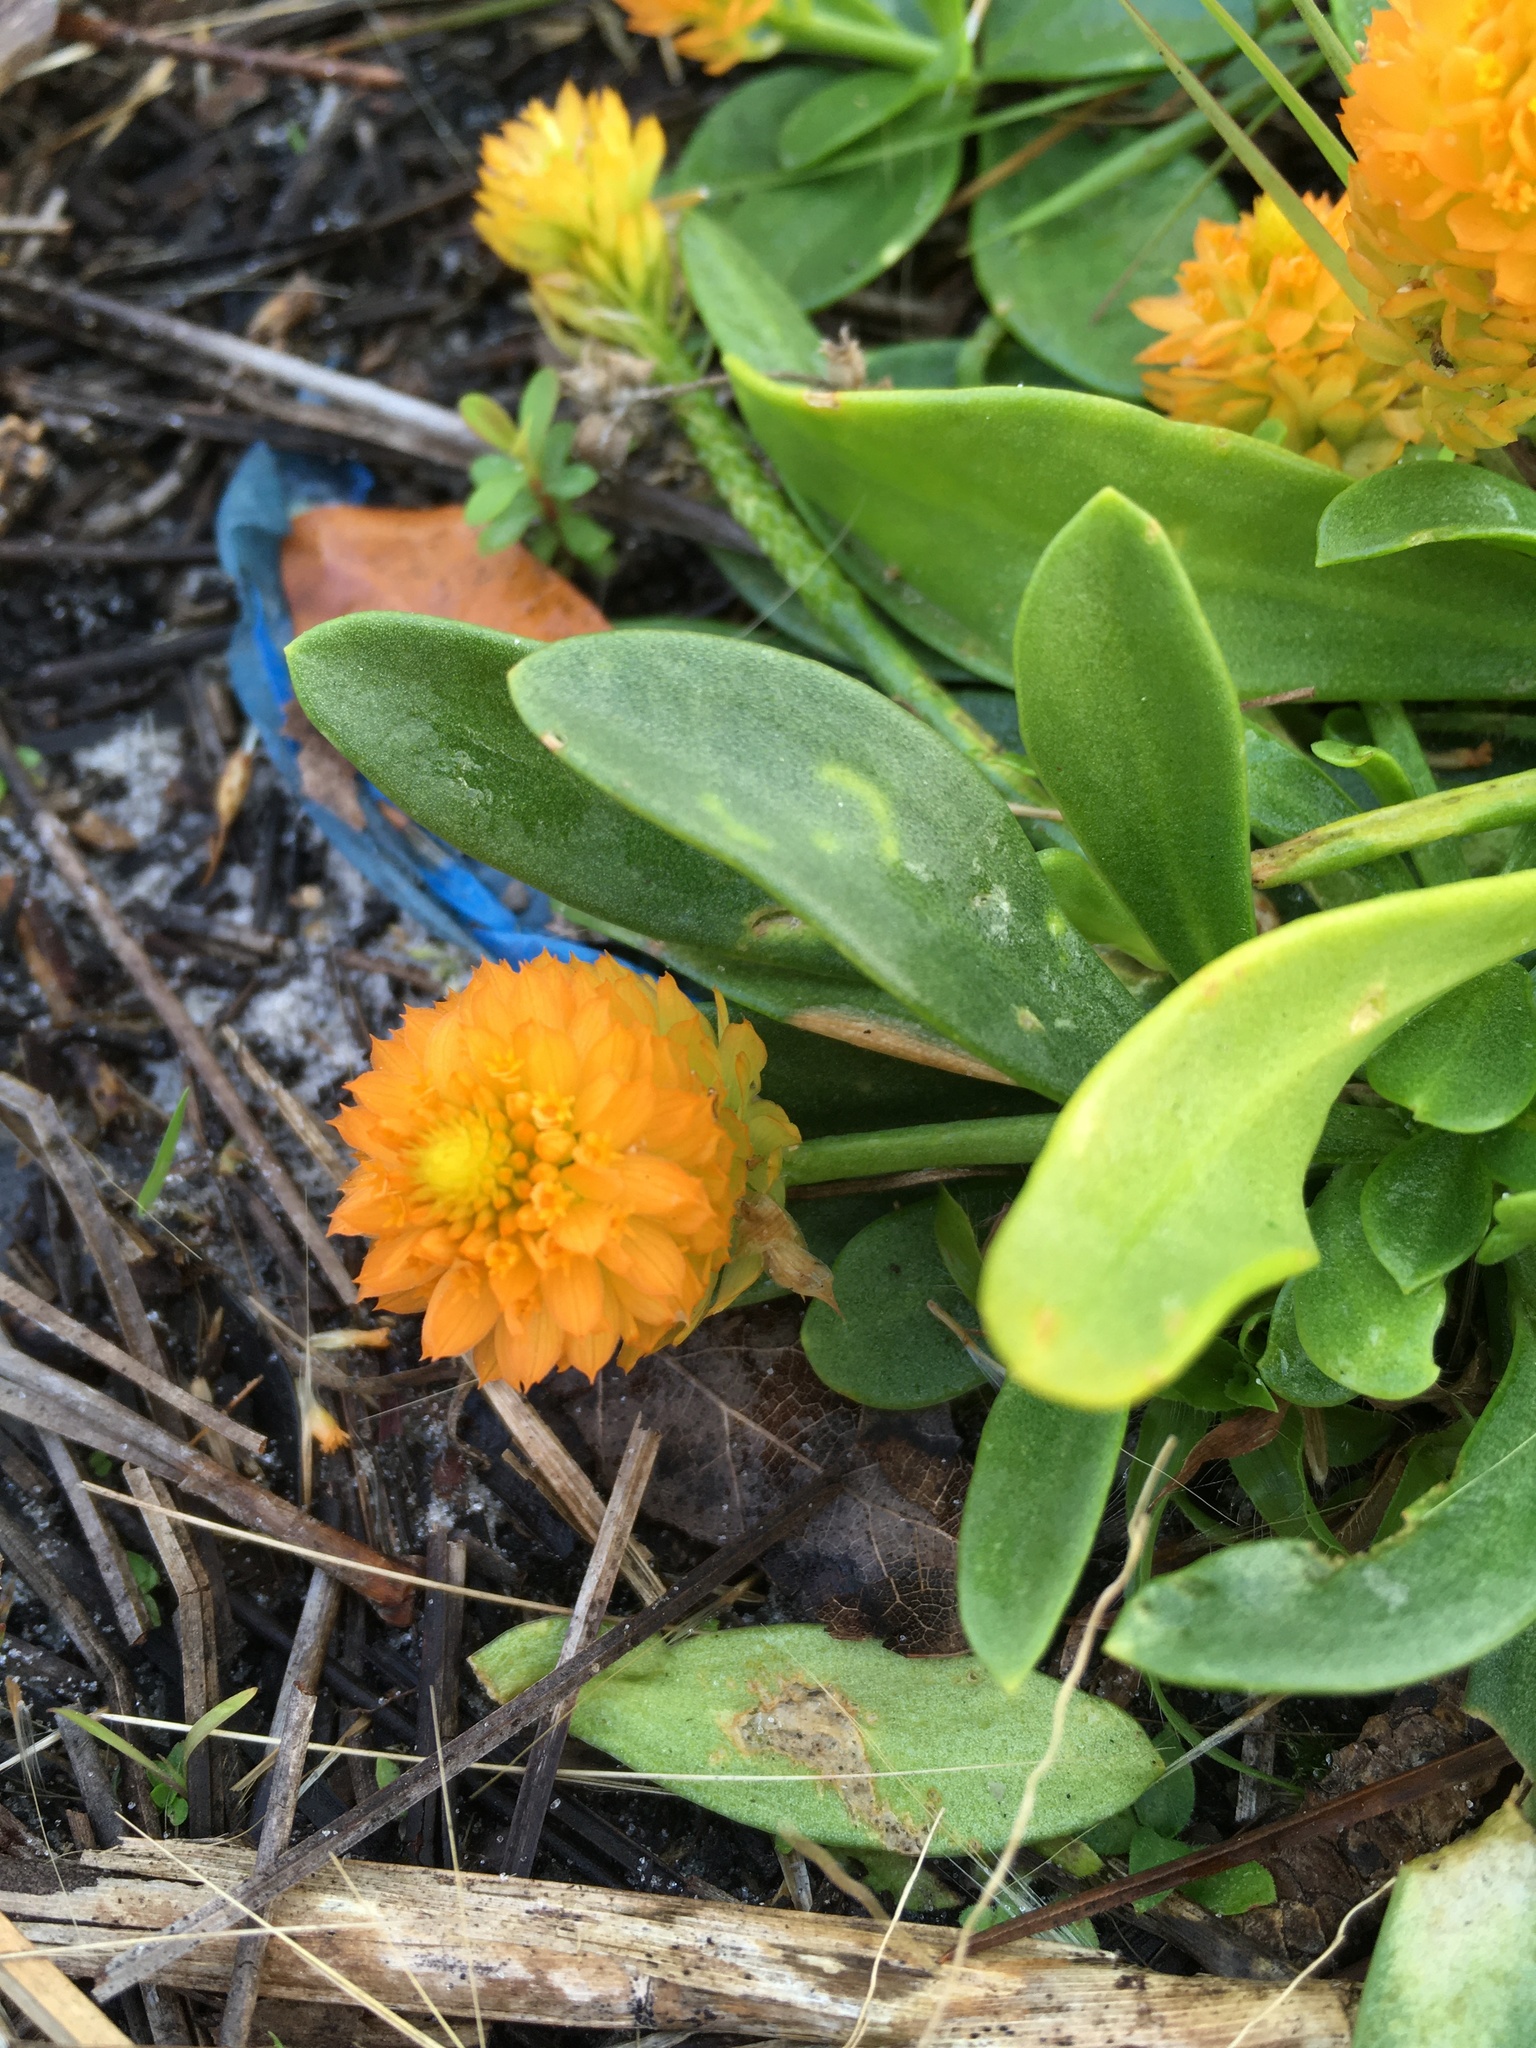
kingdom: Plantae
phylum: Tracheophyta
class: Magnoliopsida
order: Fabales
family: Polygalaceae
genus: Polygala
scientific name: Polygala lutea
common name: Orange milkwort
